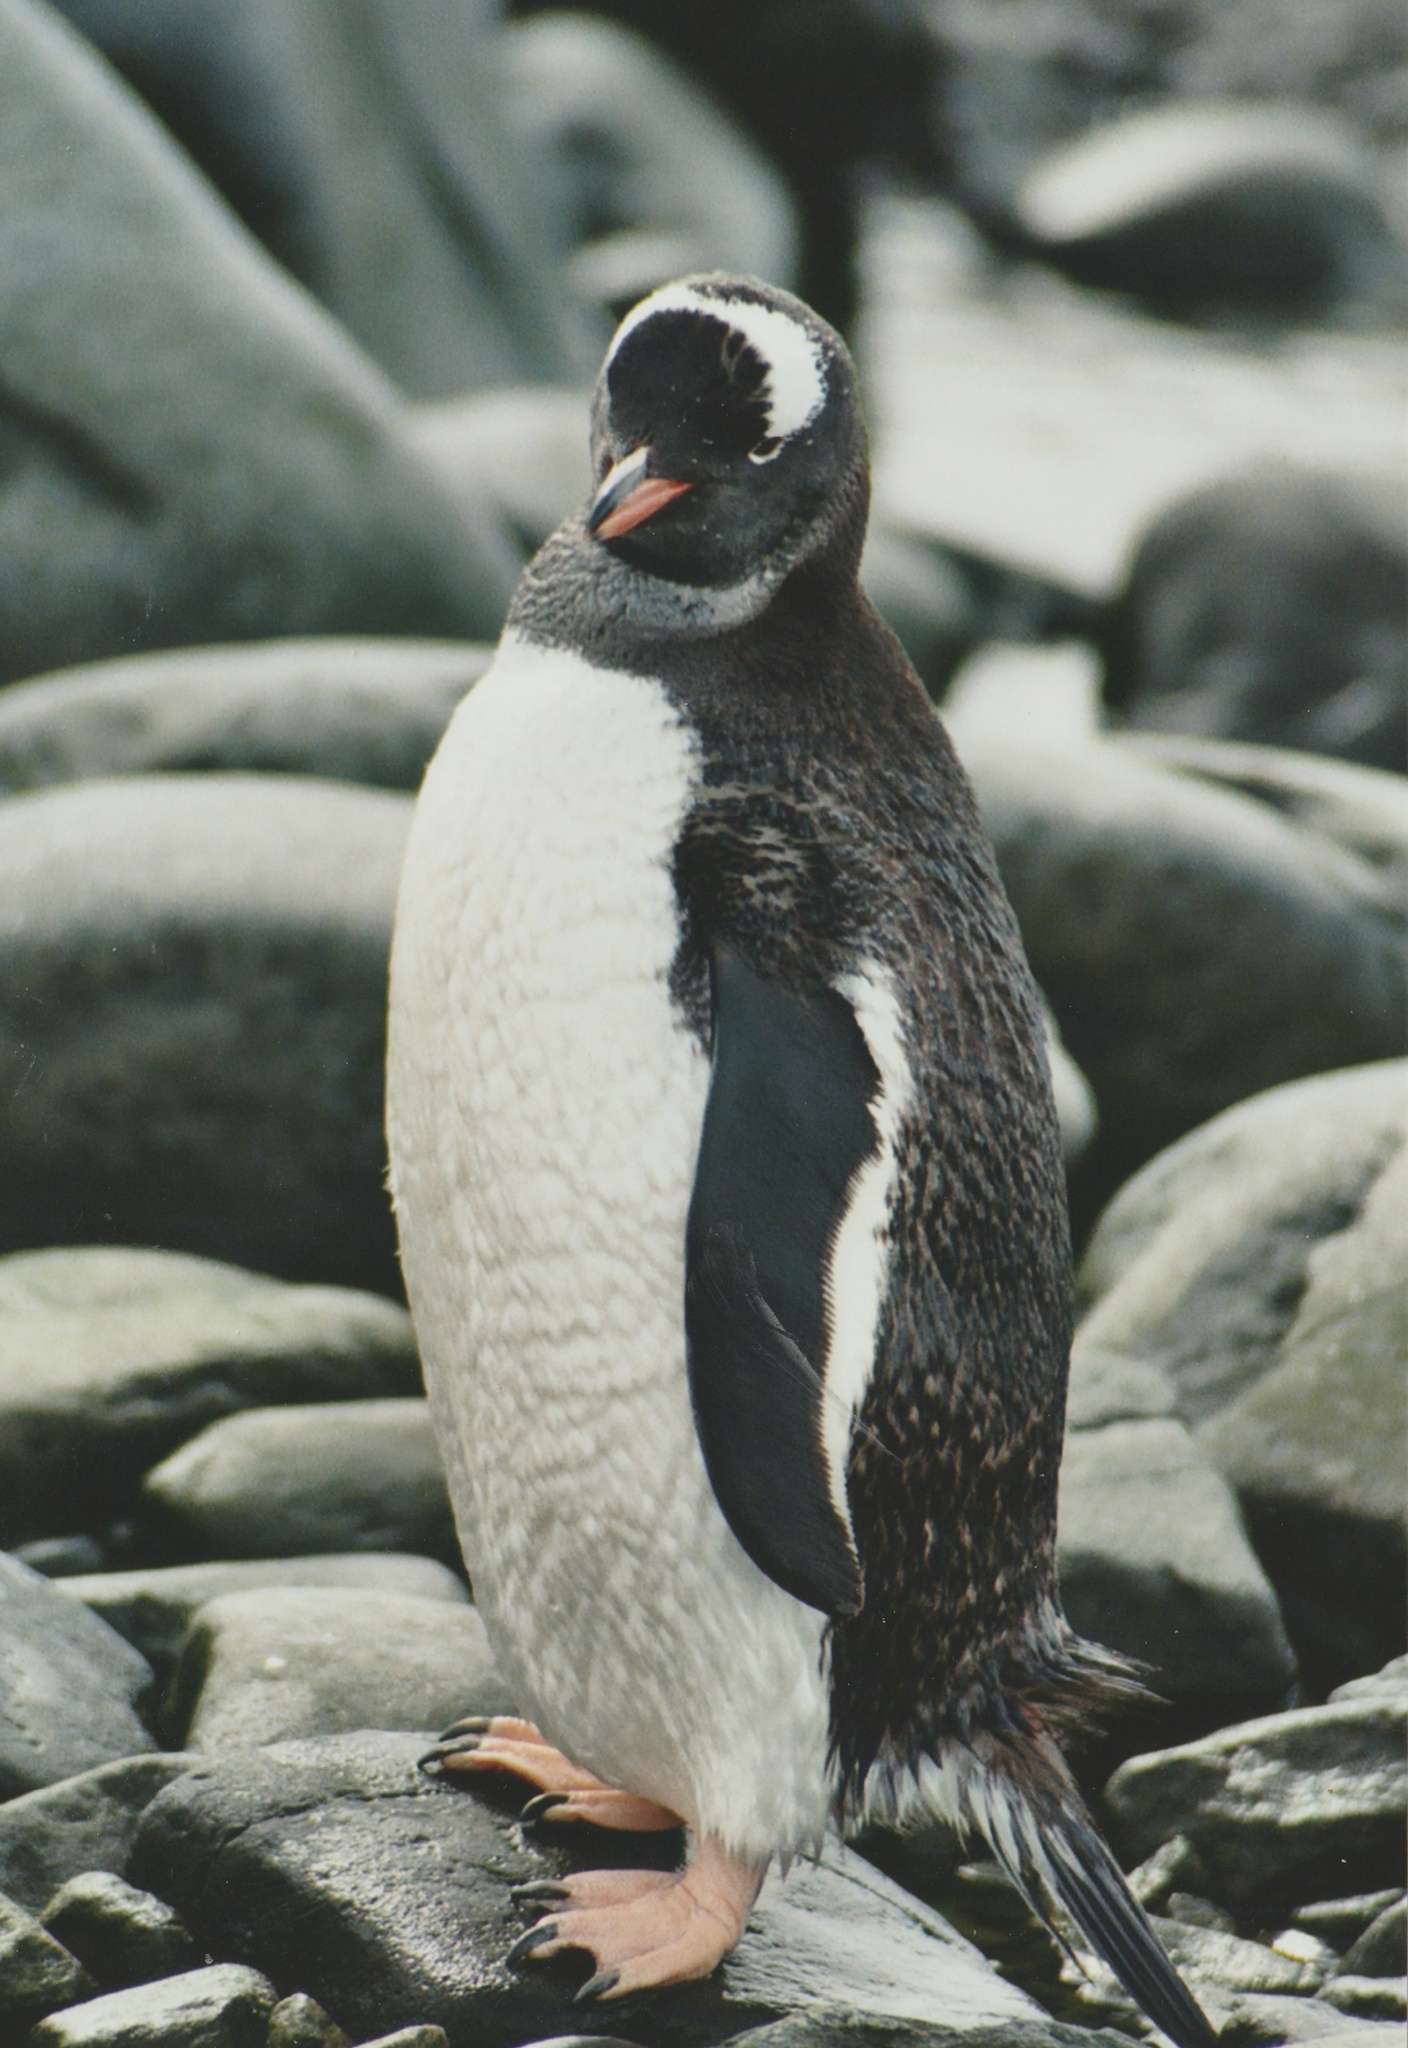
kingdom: Animalia
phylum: Chordata
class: Aves
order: Sphenisciformes
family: Spheniscidae
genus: Pygoscelis
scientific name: Pygoscelis papua
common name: Gentoo penguin
